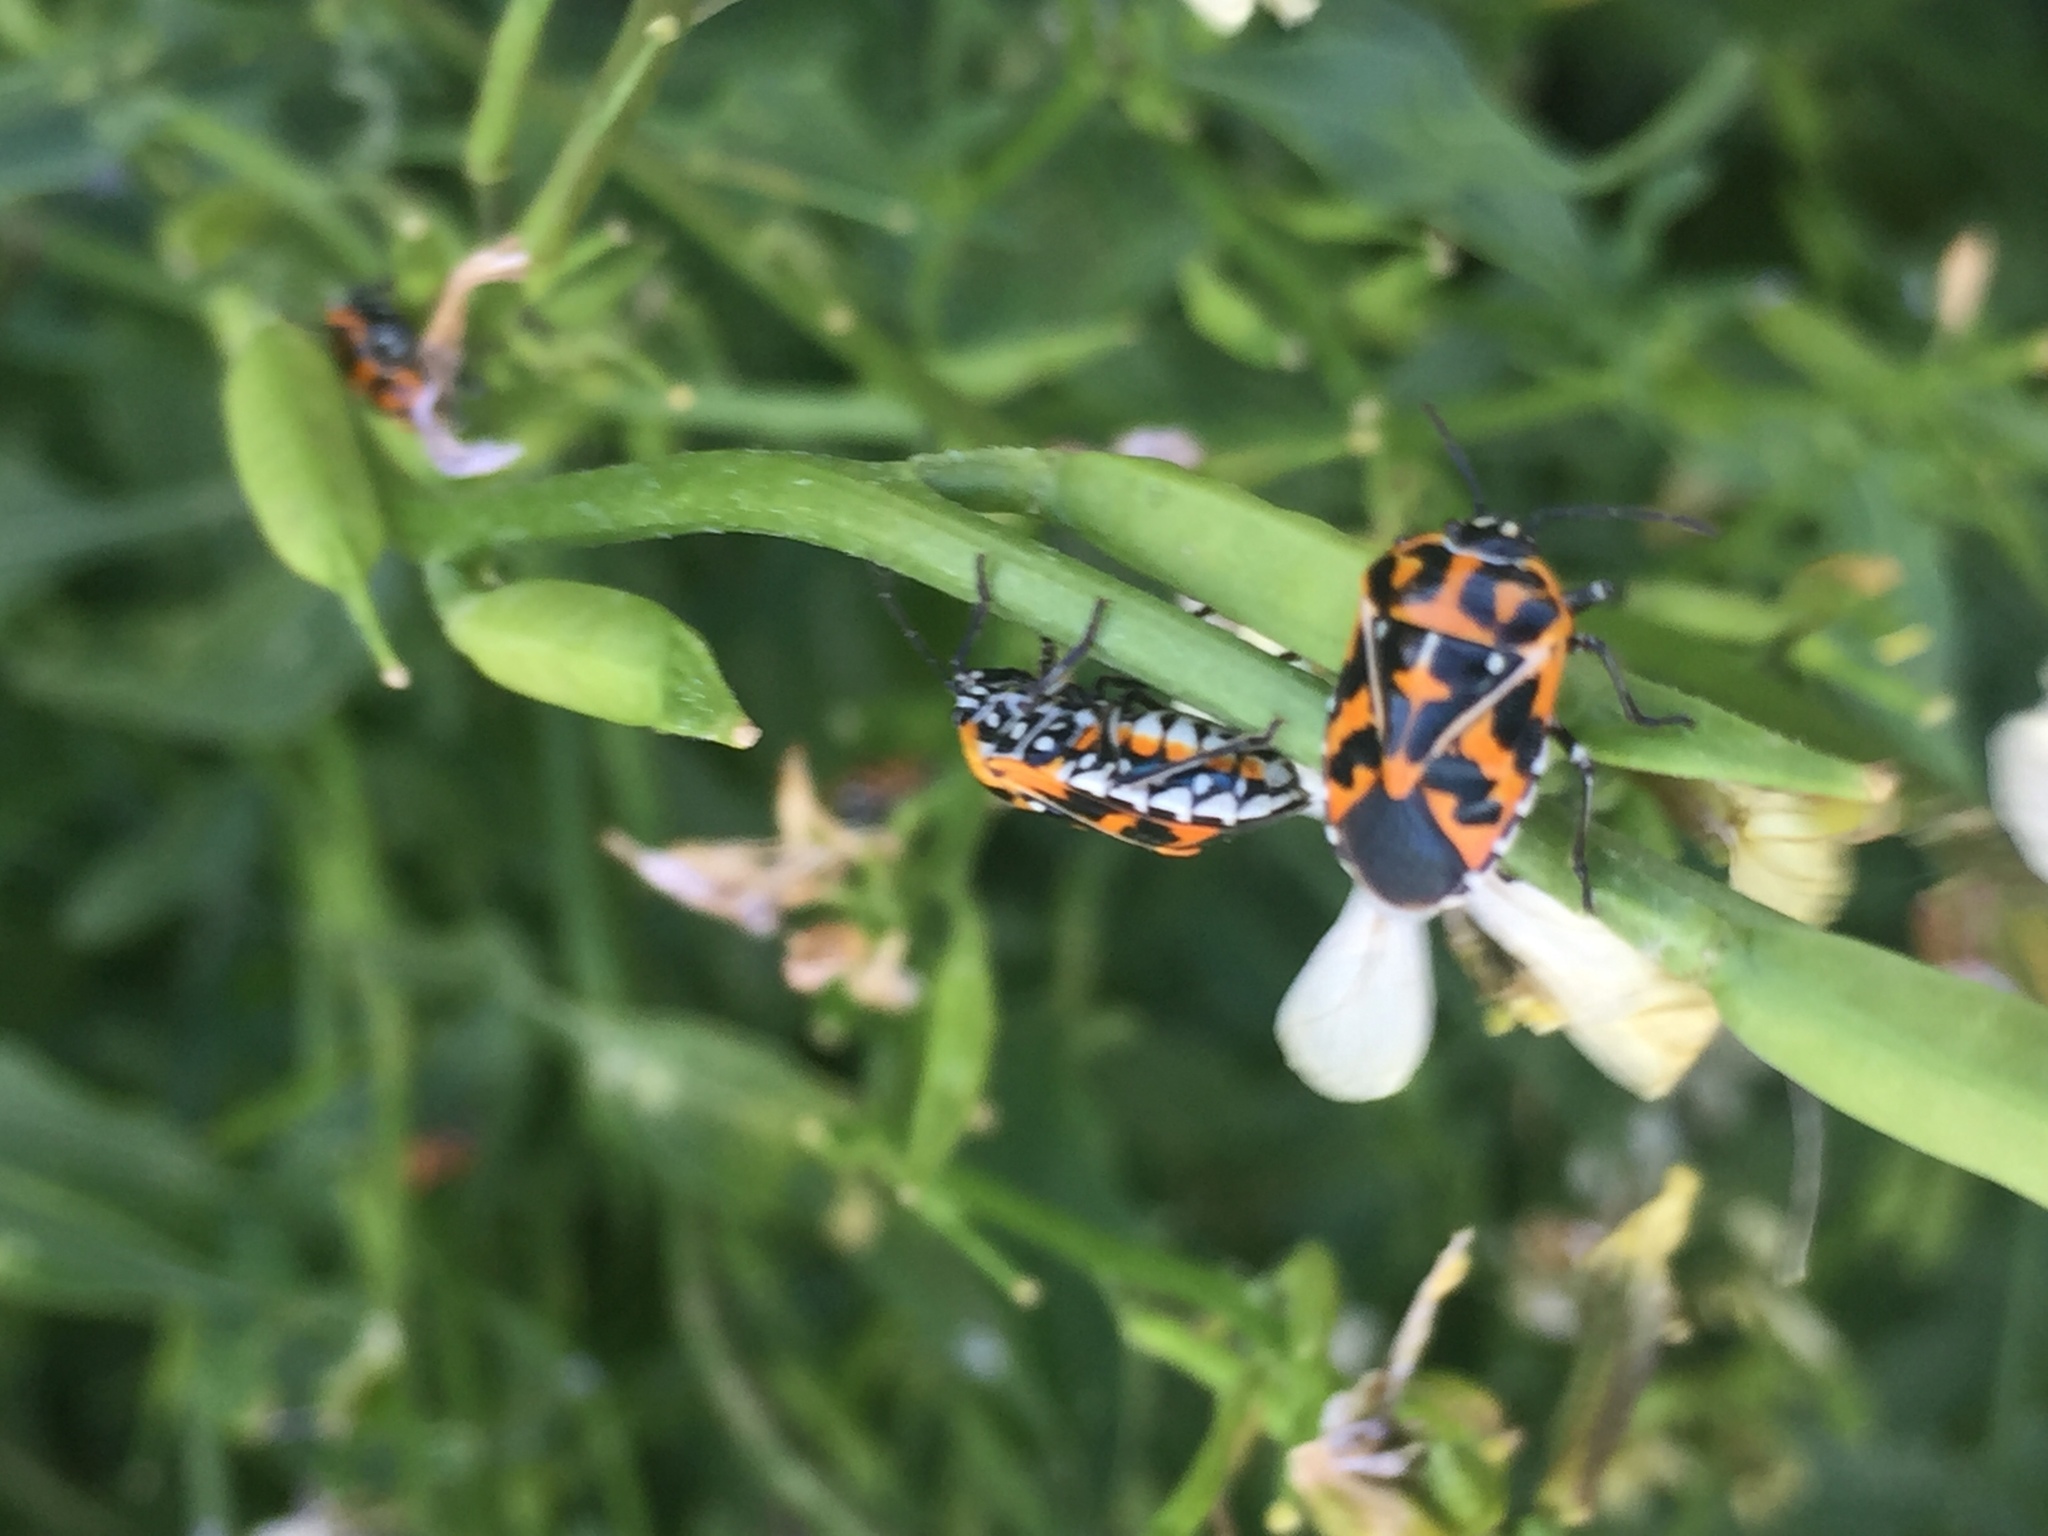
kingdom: Animalia
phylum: Arthropoda
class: Insecta
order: Hemiptera
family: Pentatomidae
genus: Murgantia
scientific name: Murgantia histrionica
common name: Harlequin bug
